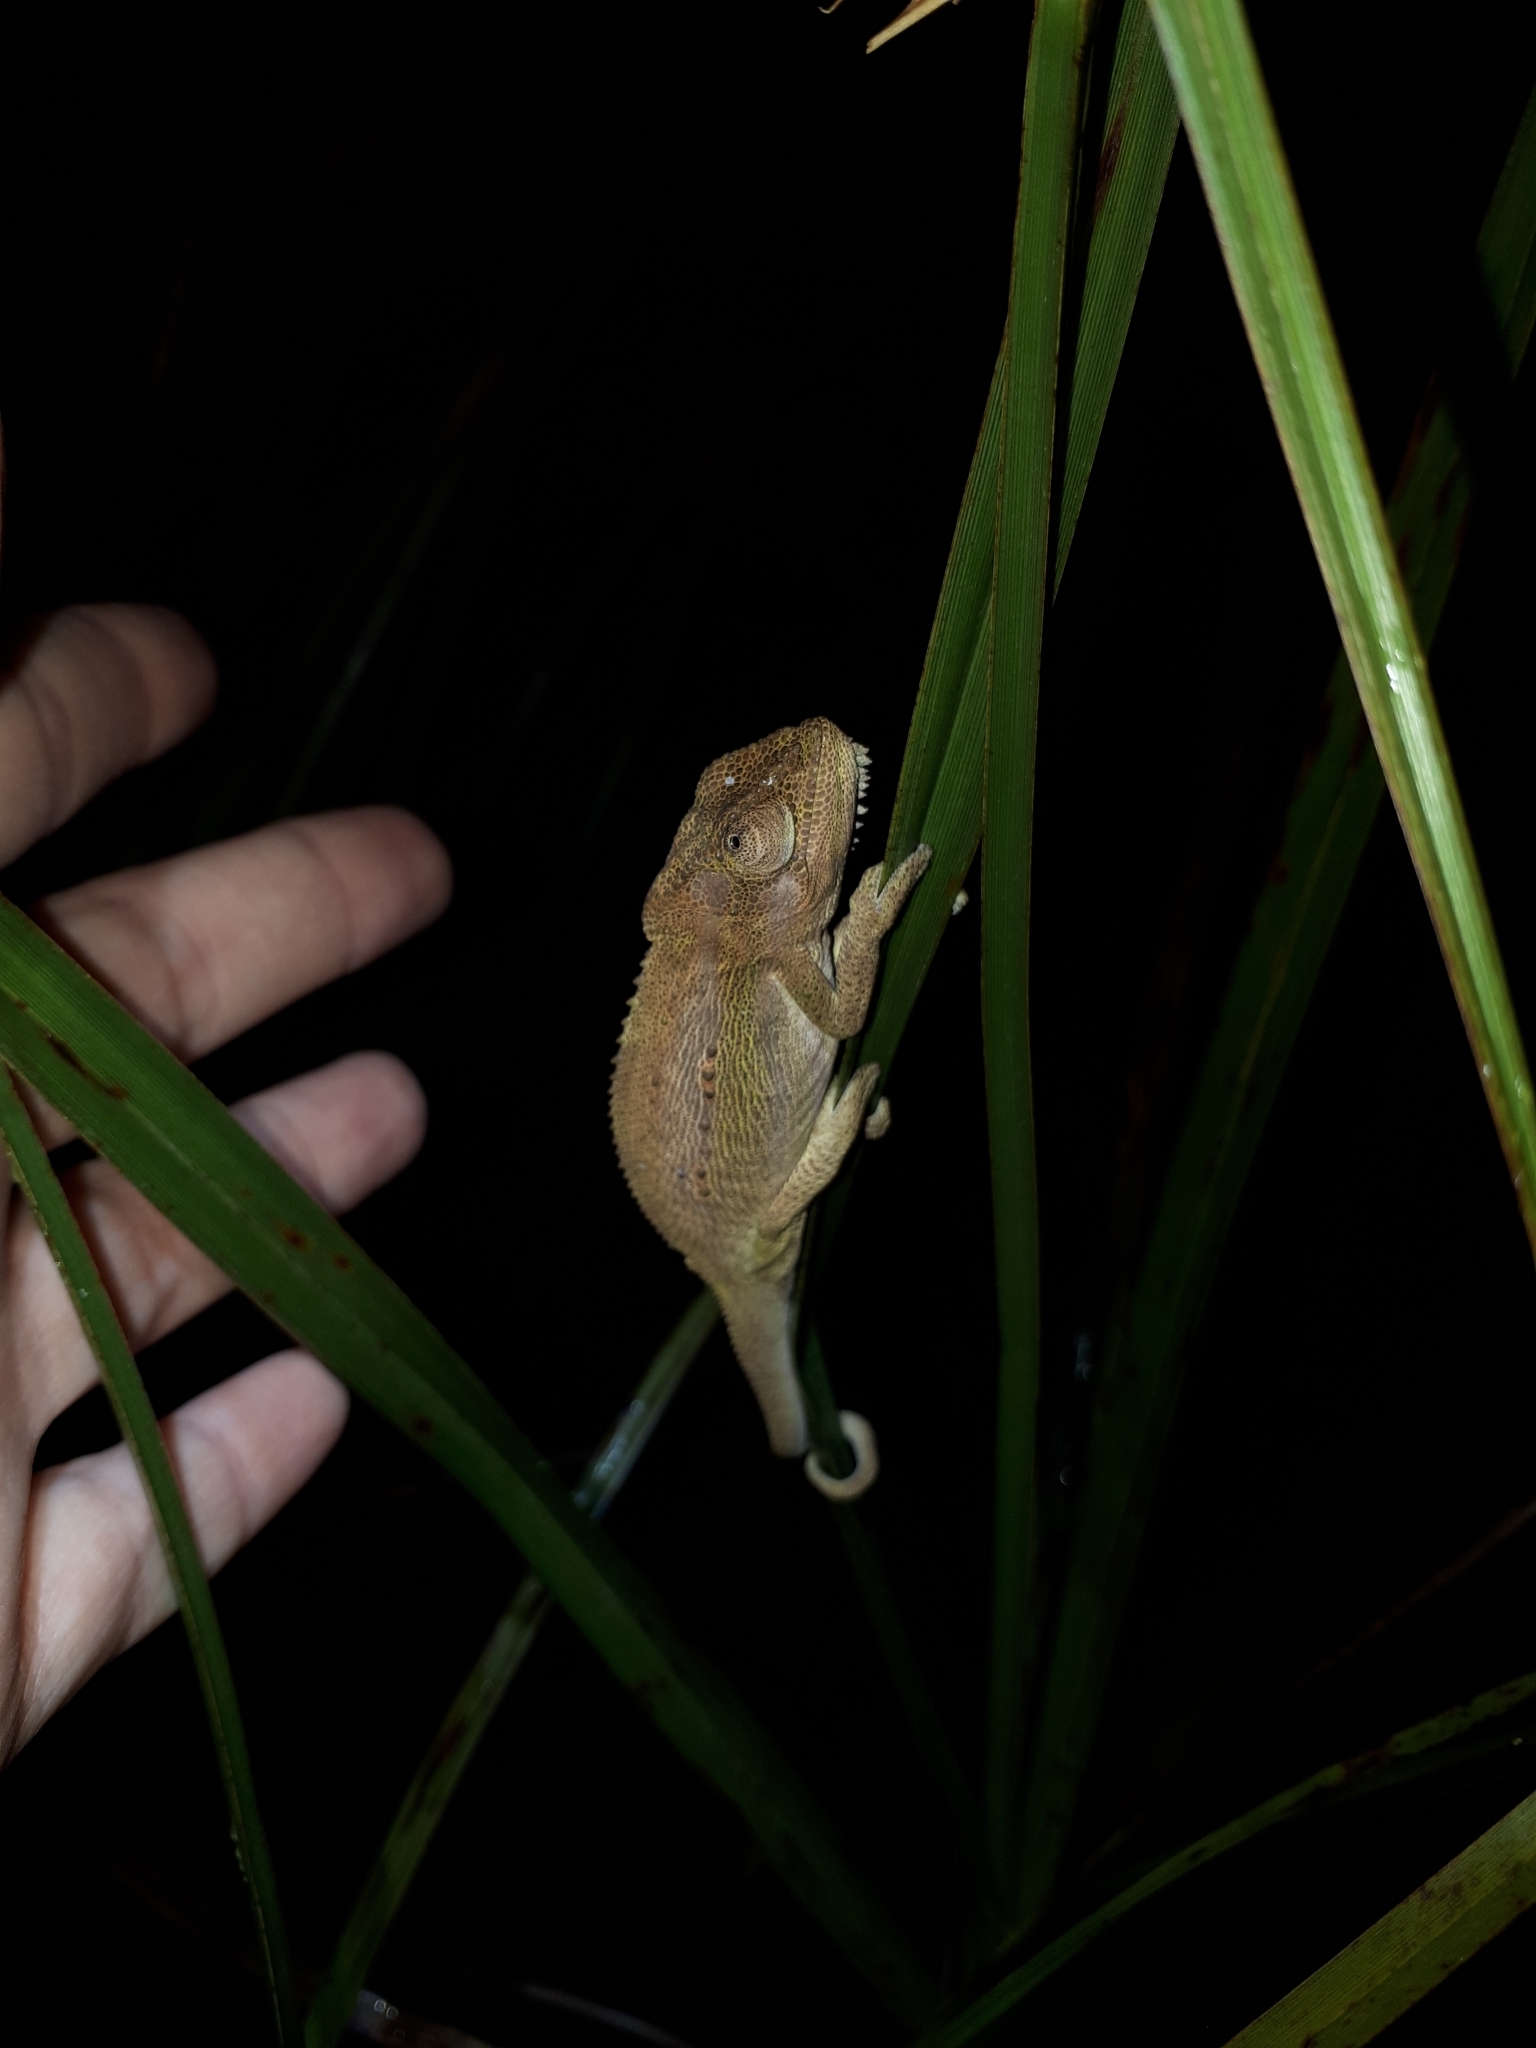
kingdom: Animalia
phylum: Chordata
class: Squamata
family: Chamaeleonidae
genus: Bradypodion
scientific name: Bradypodion pumilum
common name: Cape dwarf chameleon
